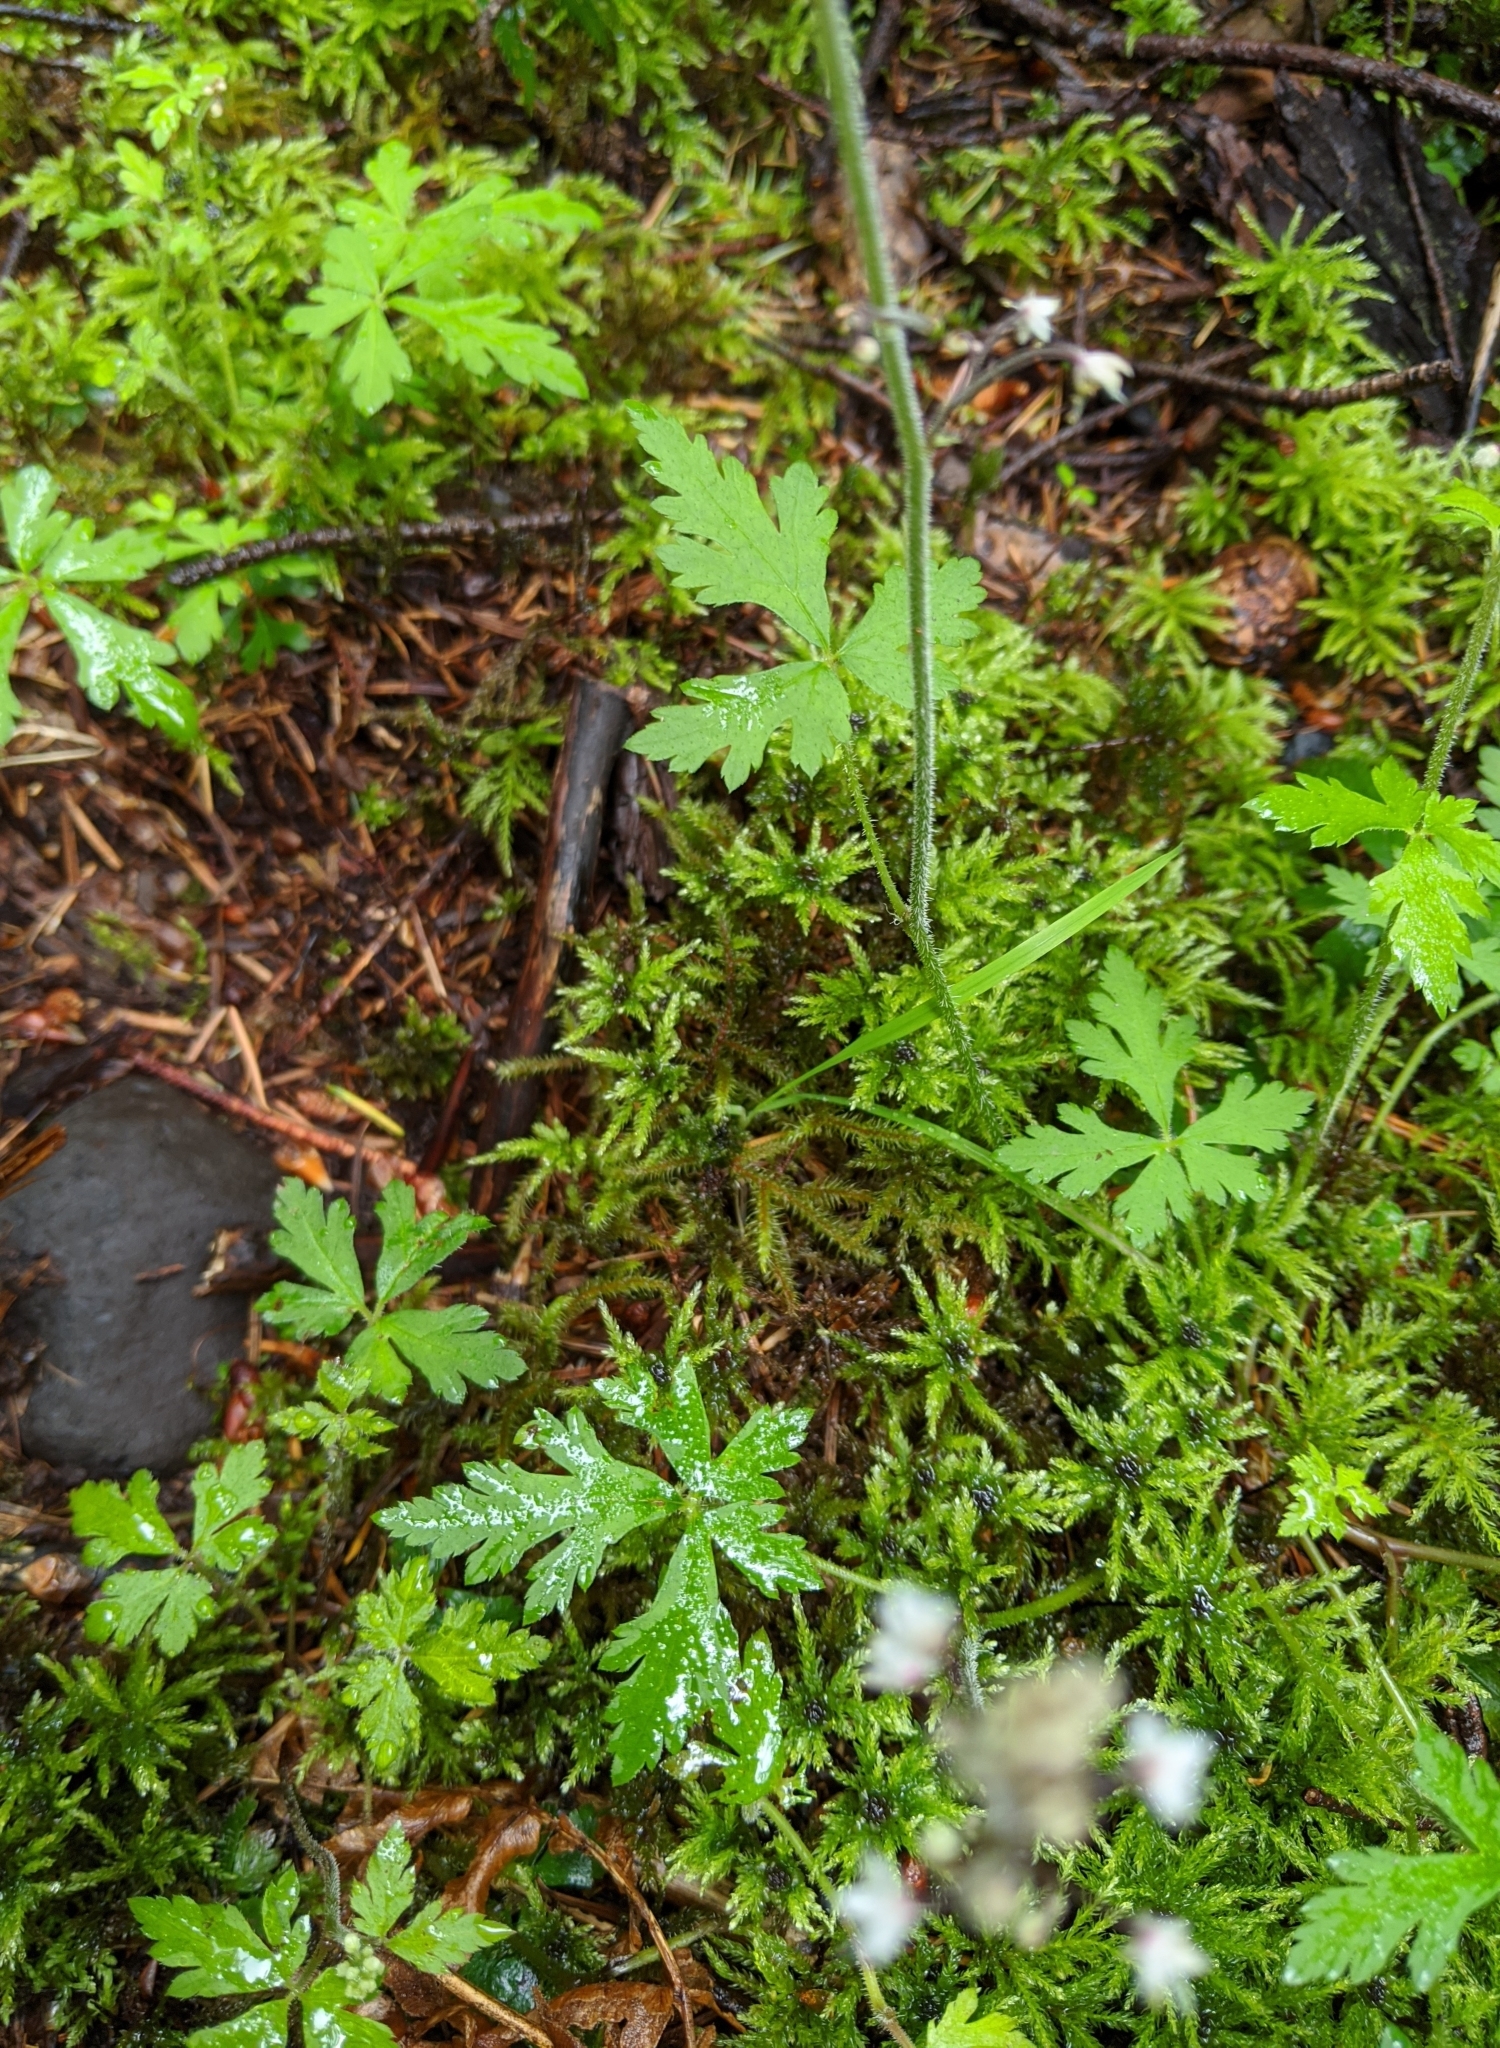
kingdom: Plantae
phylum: Tracheophyta
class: Magnoliopsida
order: Saxifragales
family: Saxifragaceae
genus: Tiarella
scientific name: Tiarella trifoliata
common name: Sugar-scoop
